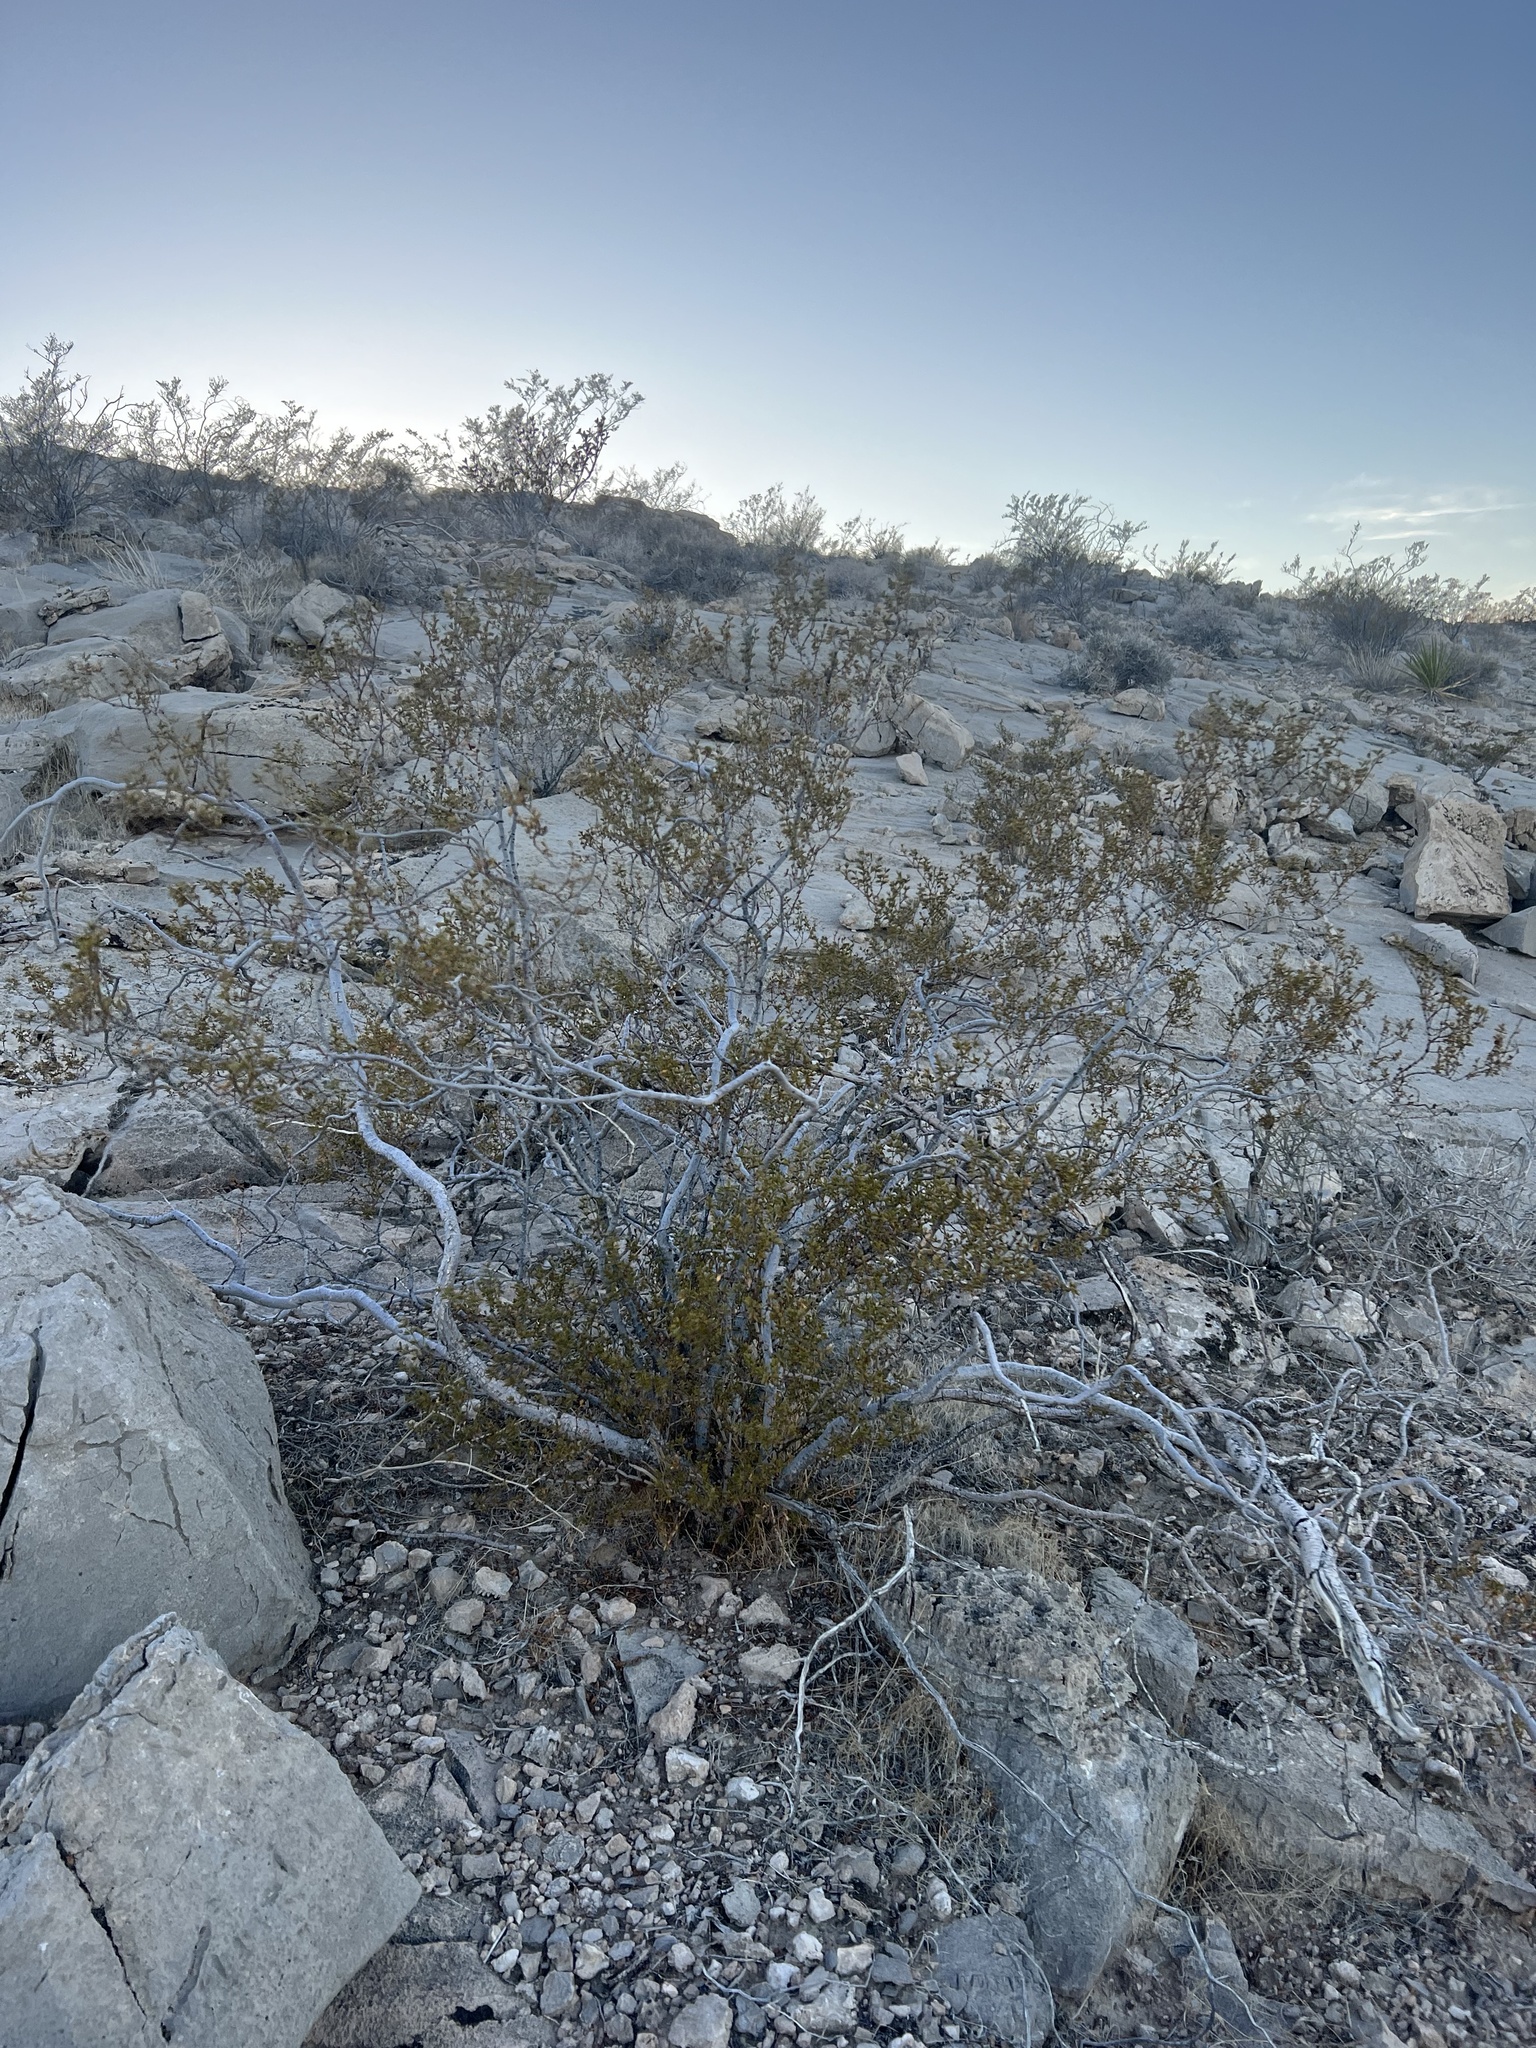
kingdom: Plantae
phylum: Tracheophyta
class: Magnoliopsida
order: Zygophyllales
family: Zygophyllaceae
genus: Larrea
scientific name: Larrea tridentata
